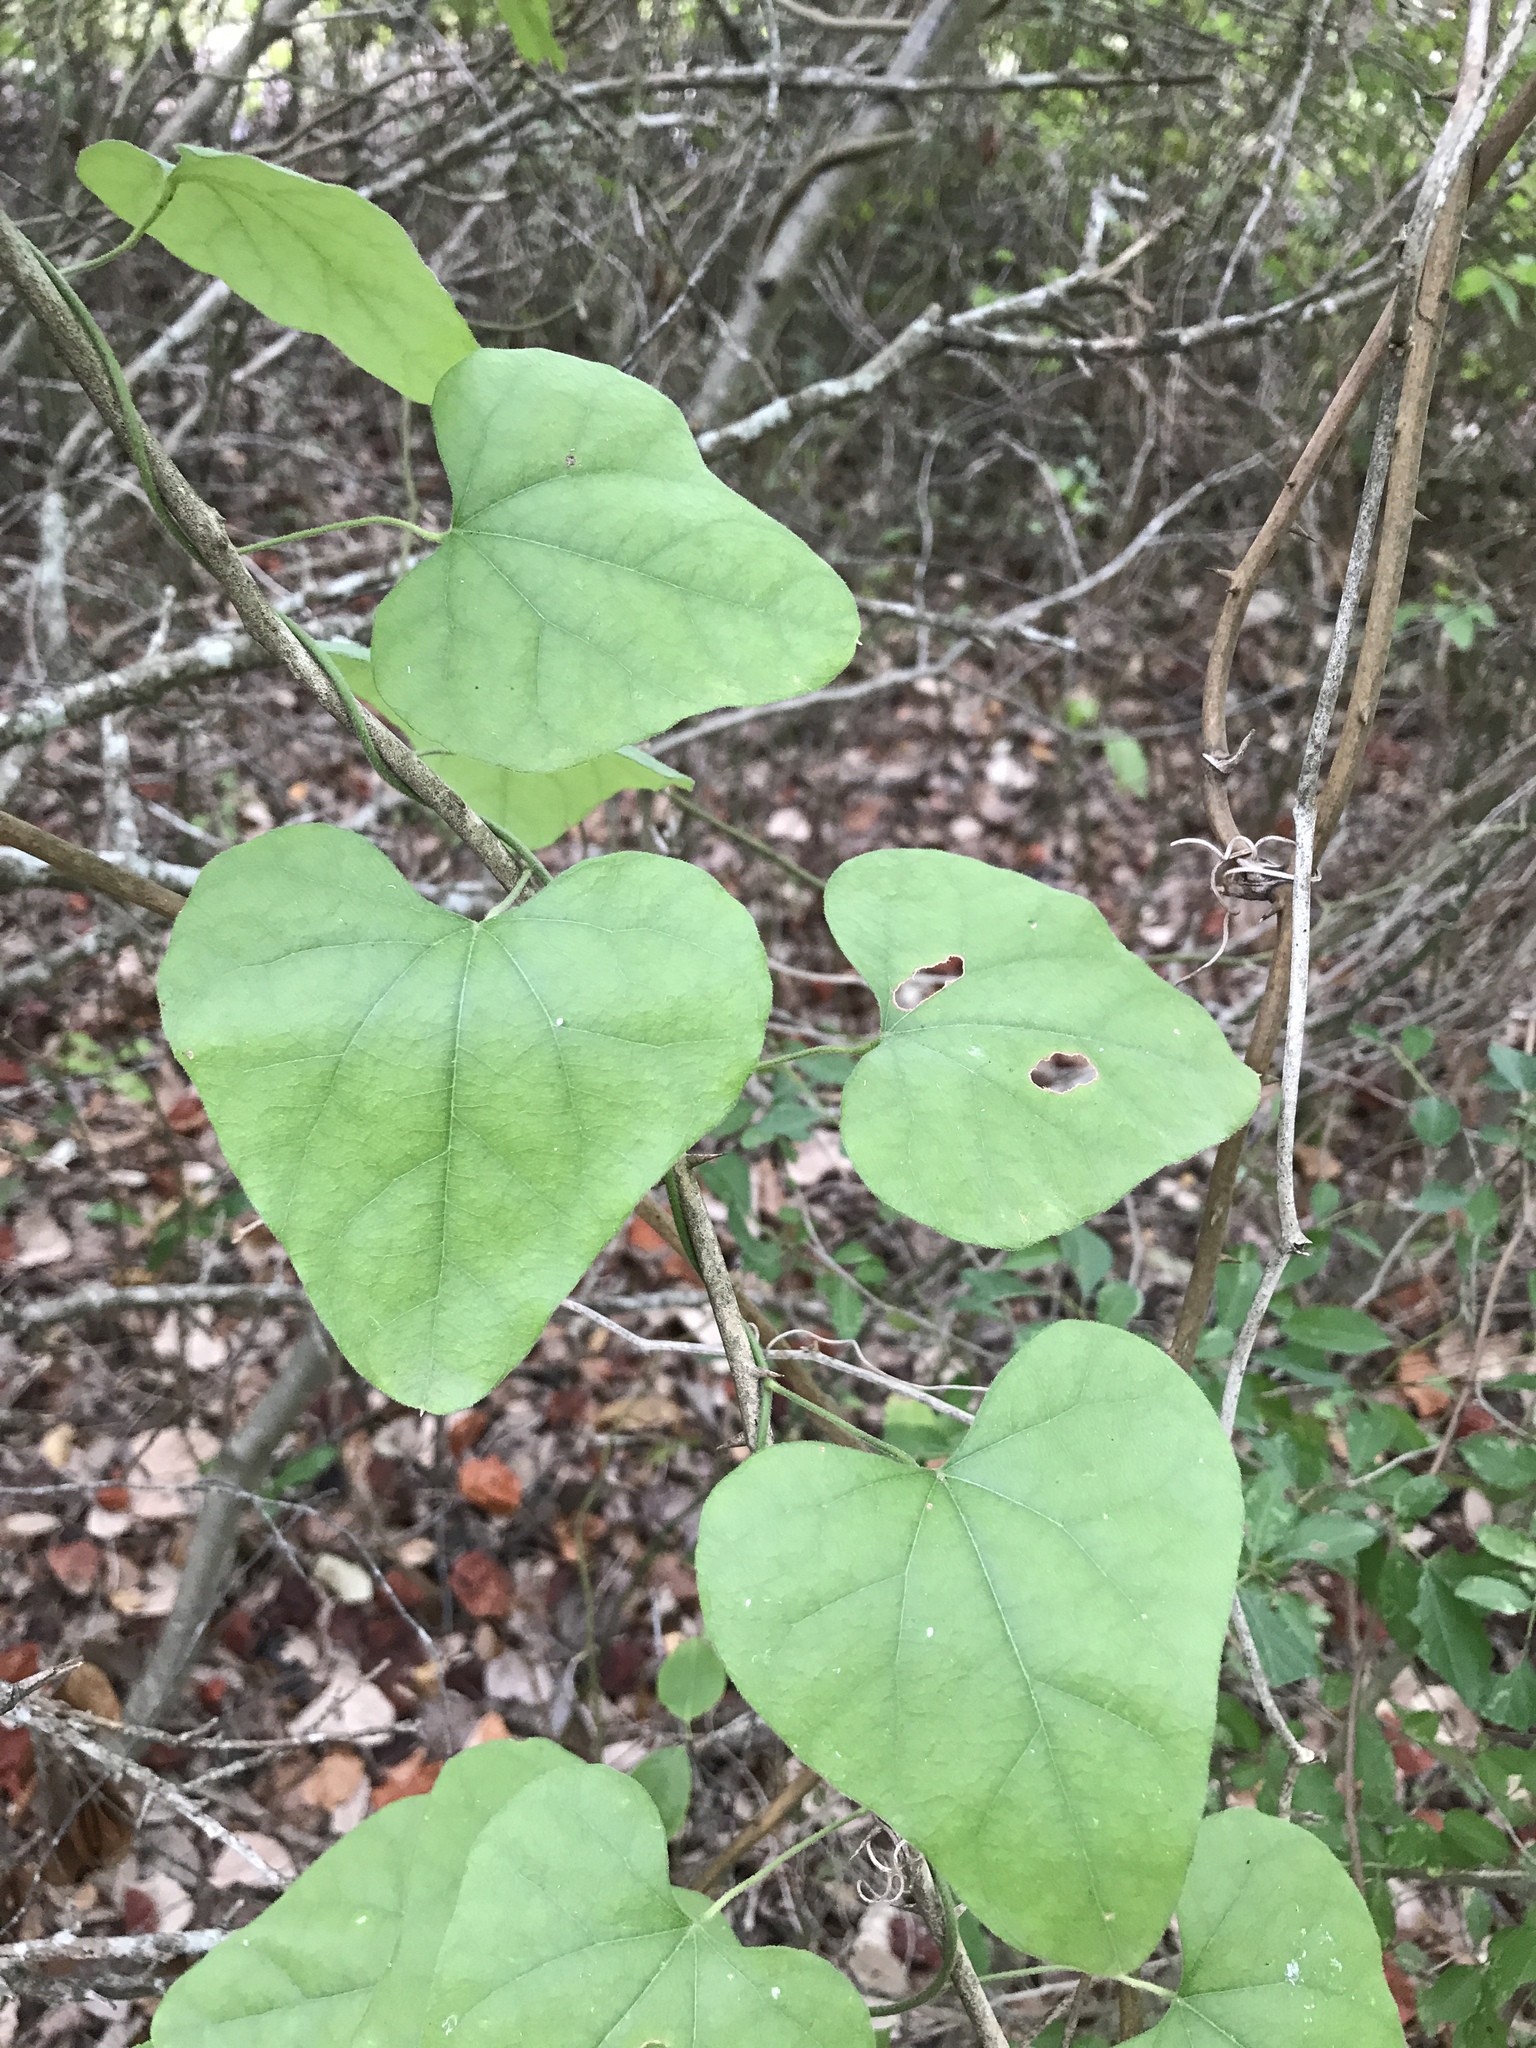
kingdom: Plantae
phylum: Tracheophyta
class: Magnoliopsida
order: Ranunculales
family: Menispermaceae
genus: Cocculus
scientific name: Cocculus carolinus
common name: Carolina moonseed
